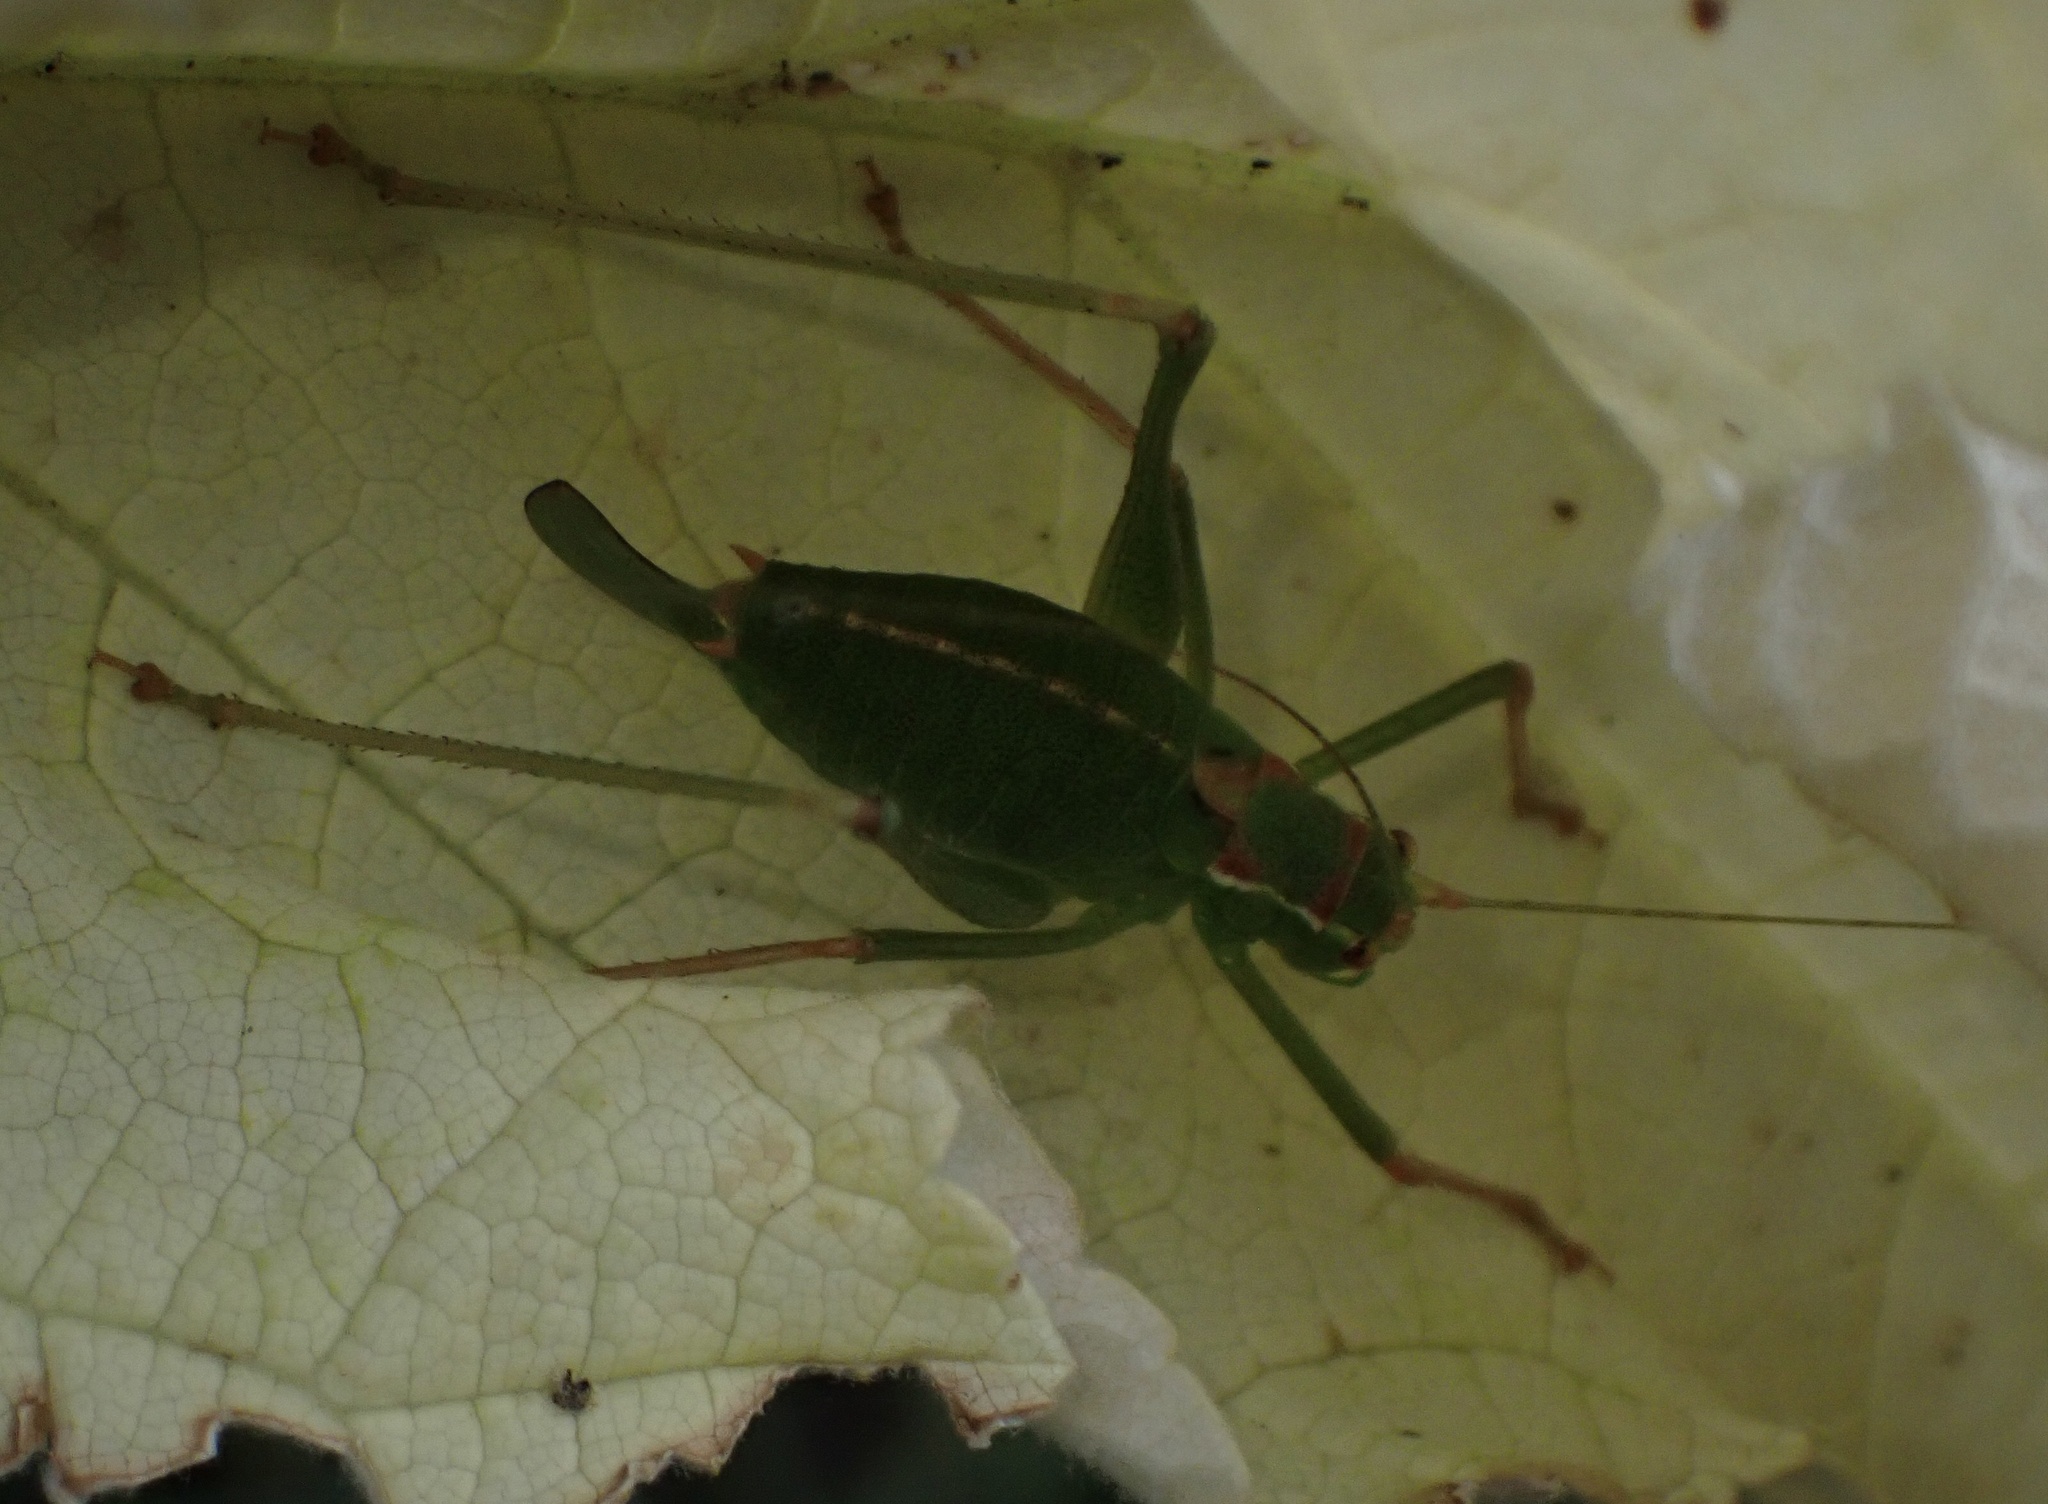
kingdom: Animalia
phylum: Arthropoda
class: Insecta
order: Orthoptera
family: Tettigoniidae
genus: Leptophyes
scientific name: Leptophyes punctatissima
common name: Speckled bush-cricket
